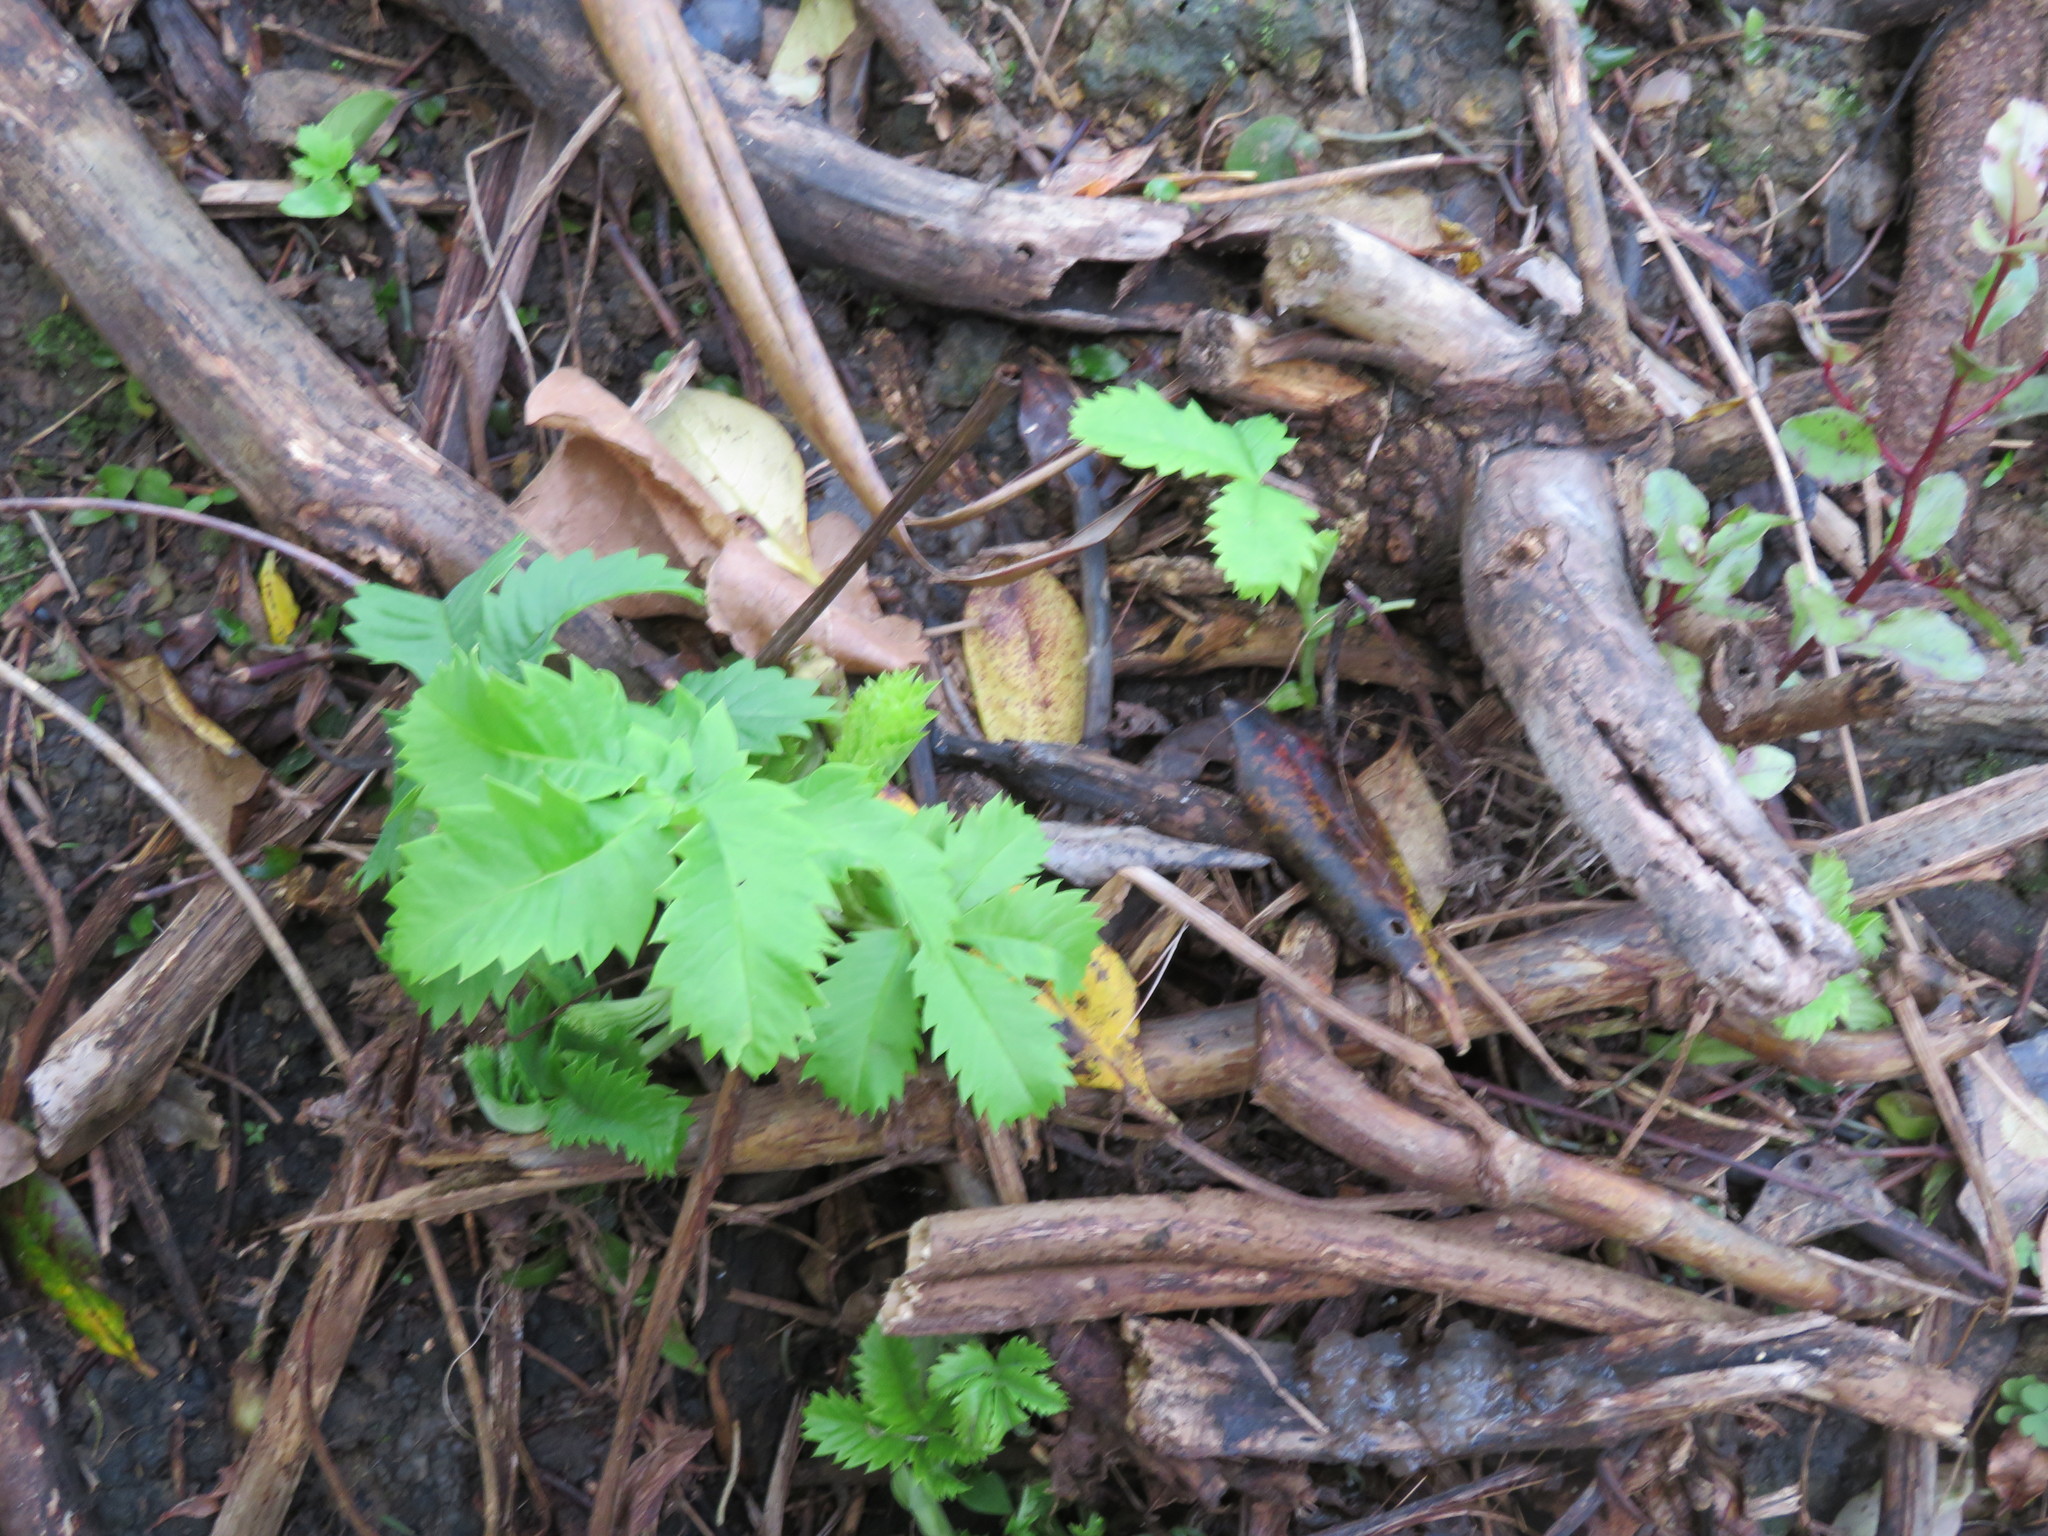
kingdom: Plantae
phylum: Tracheophyta
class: Magnoliopsida
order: Geraniales
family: Melianthaceae
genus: Melianthus
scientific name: Melianthus major
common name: Honey-flower
